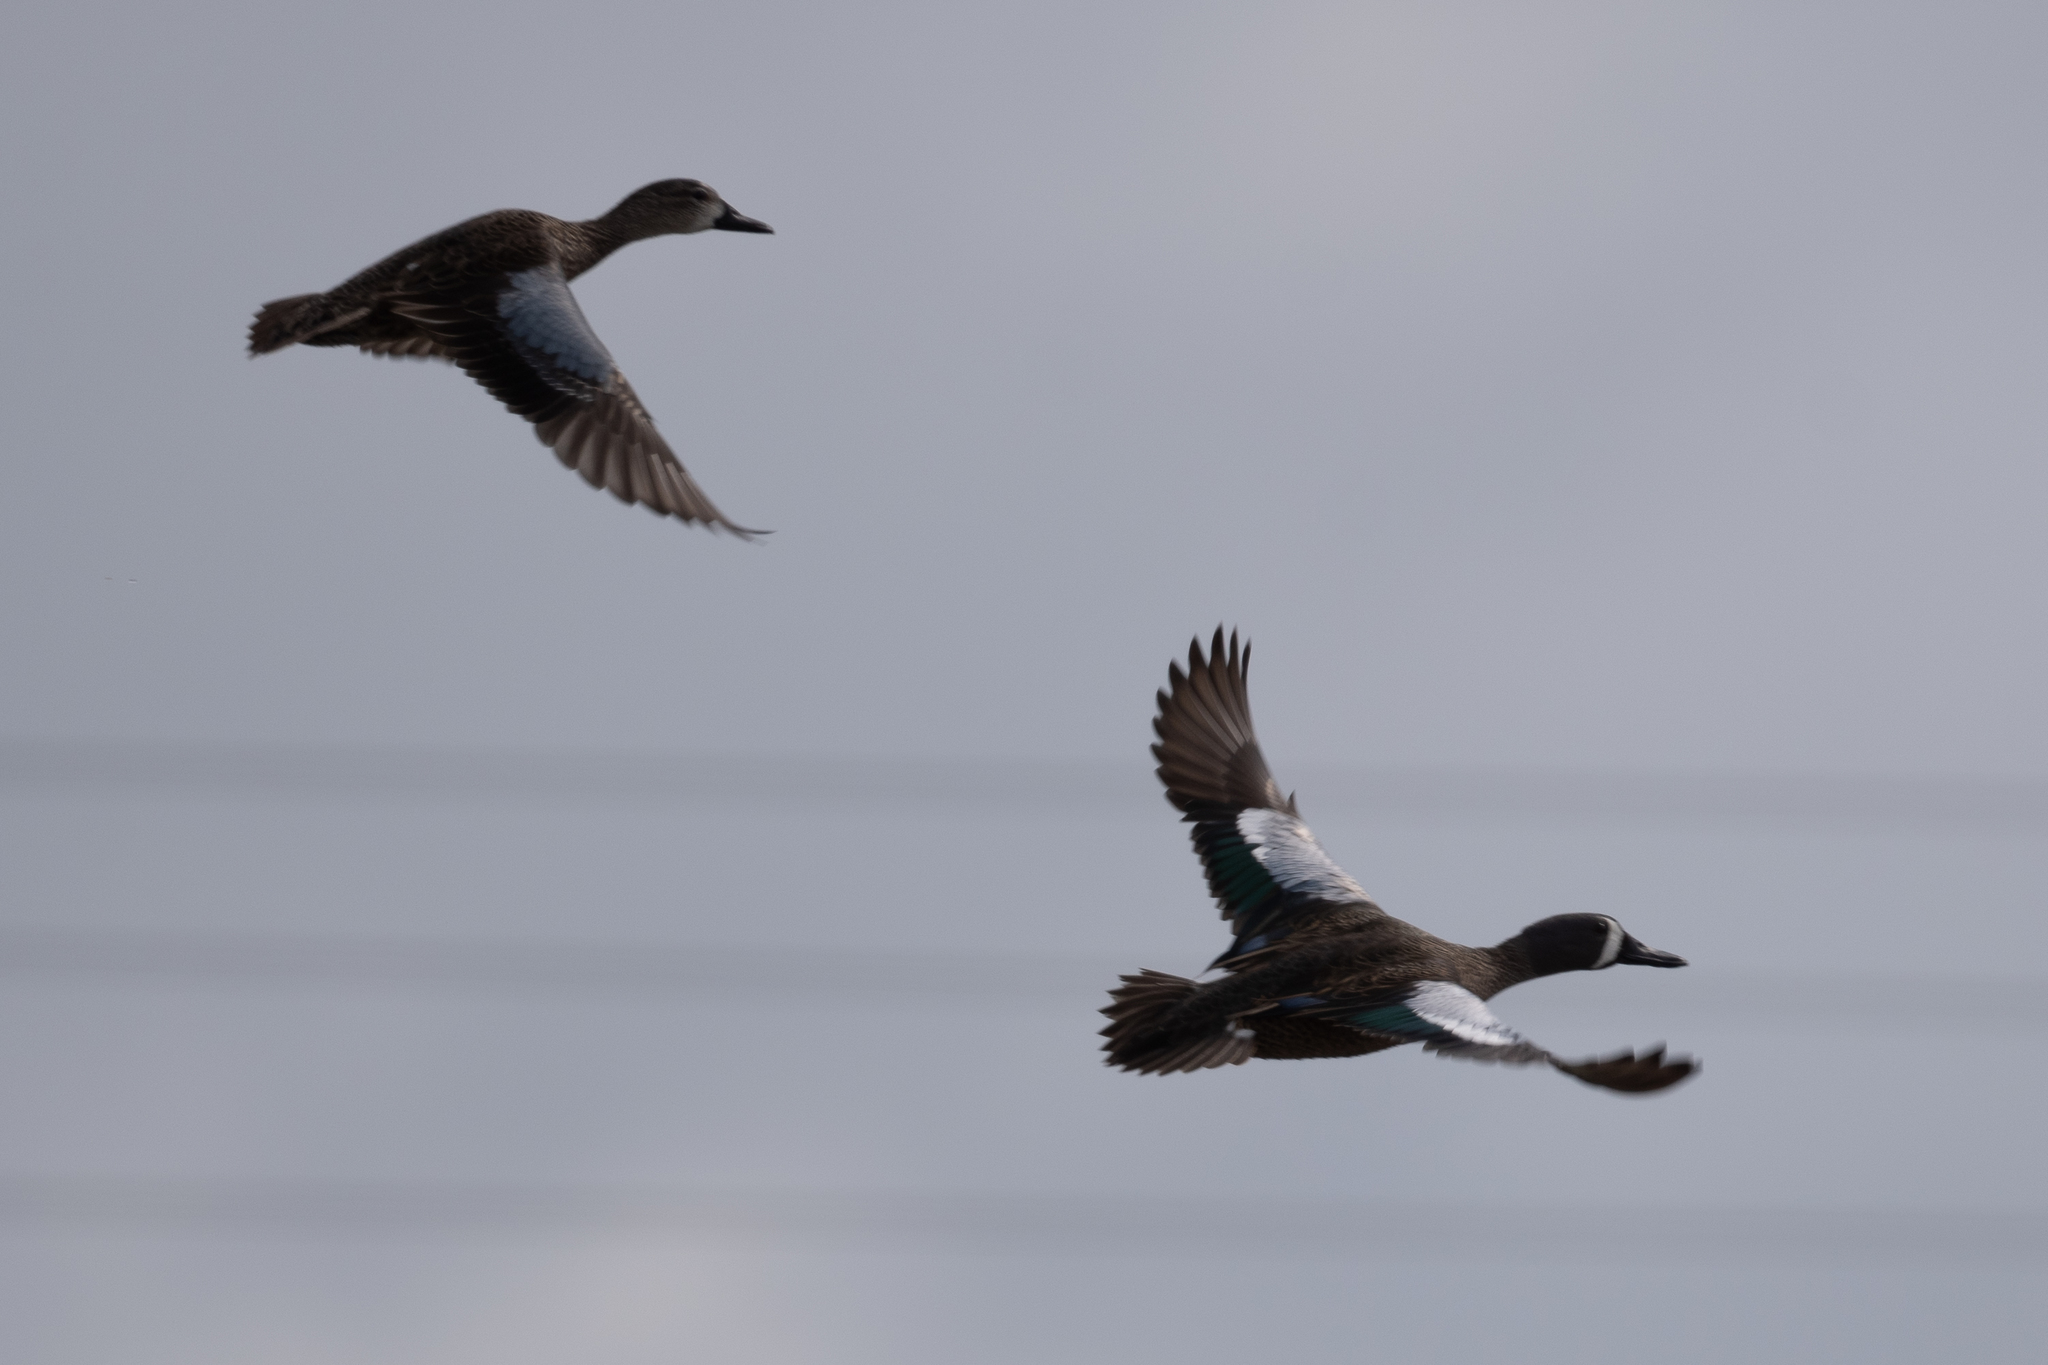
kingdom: Animalia
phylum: Chordata
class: Aves
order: Anseriformes
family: Anatidae
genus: Spatula
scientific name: Spatula discors
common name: Blue-winged teal
